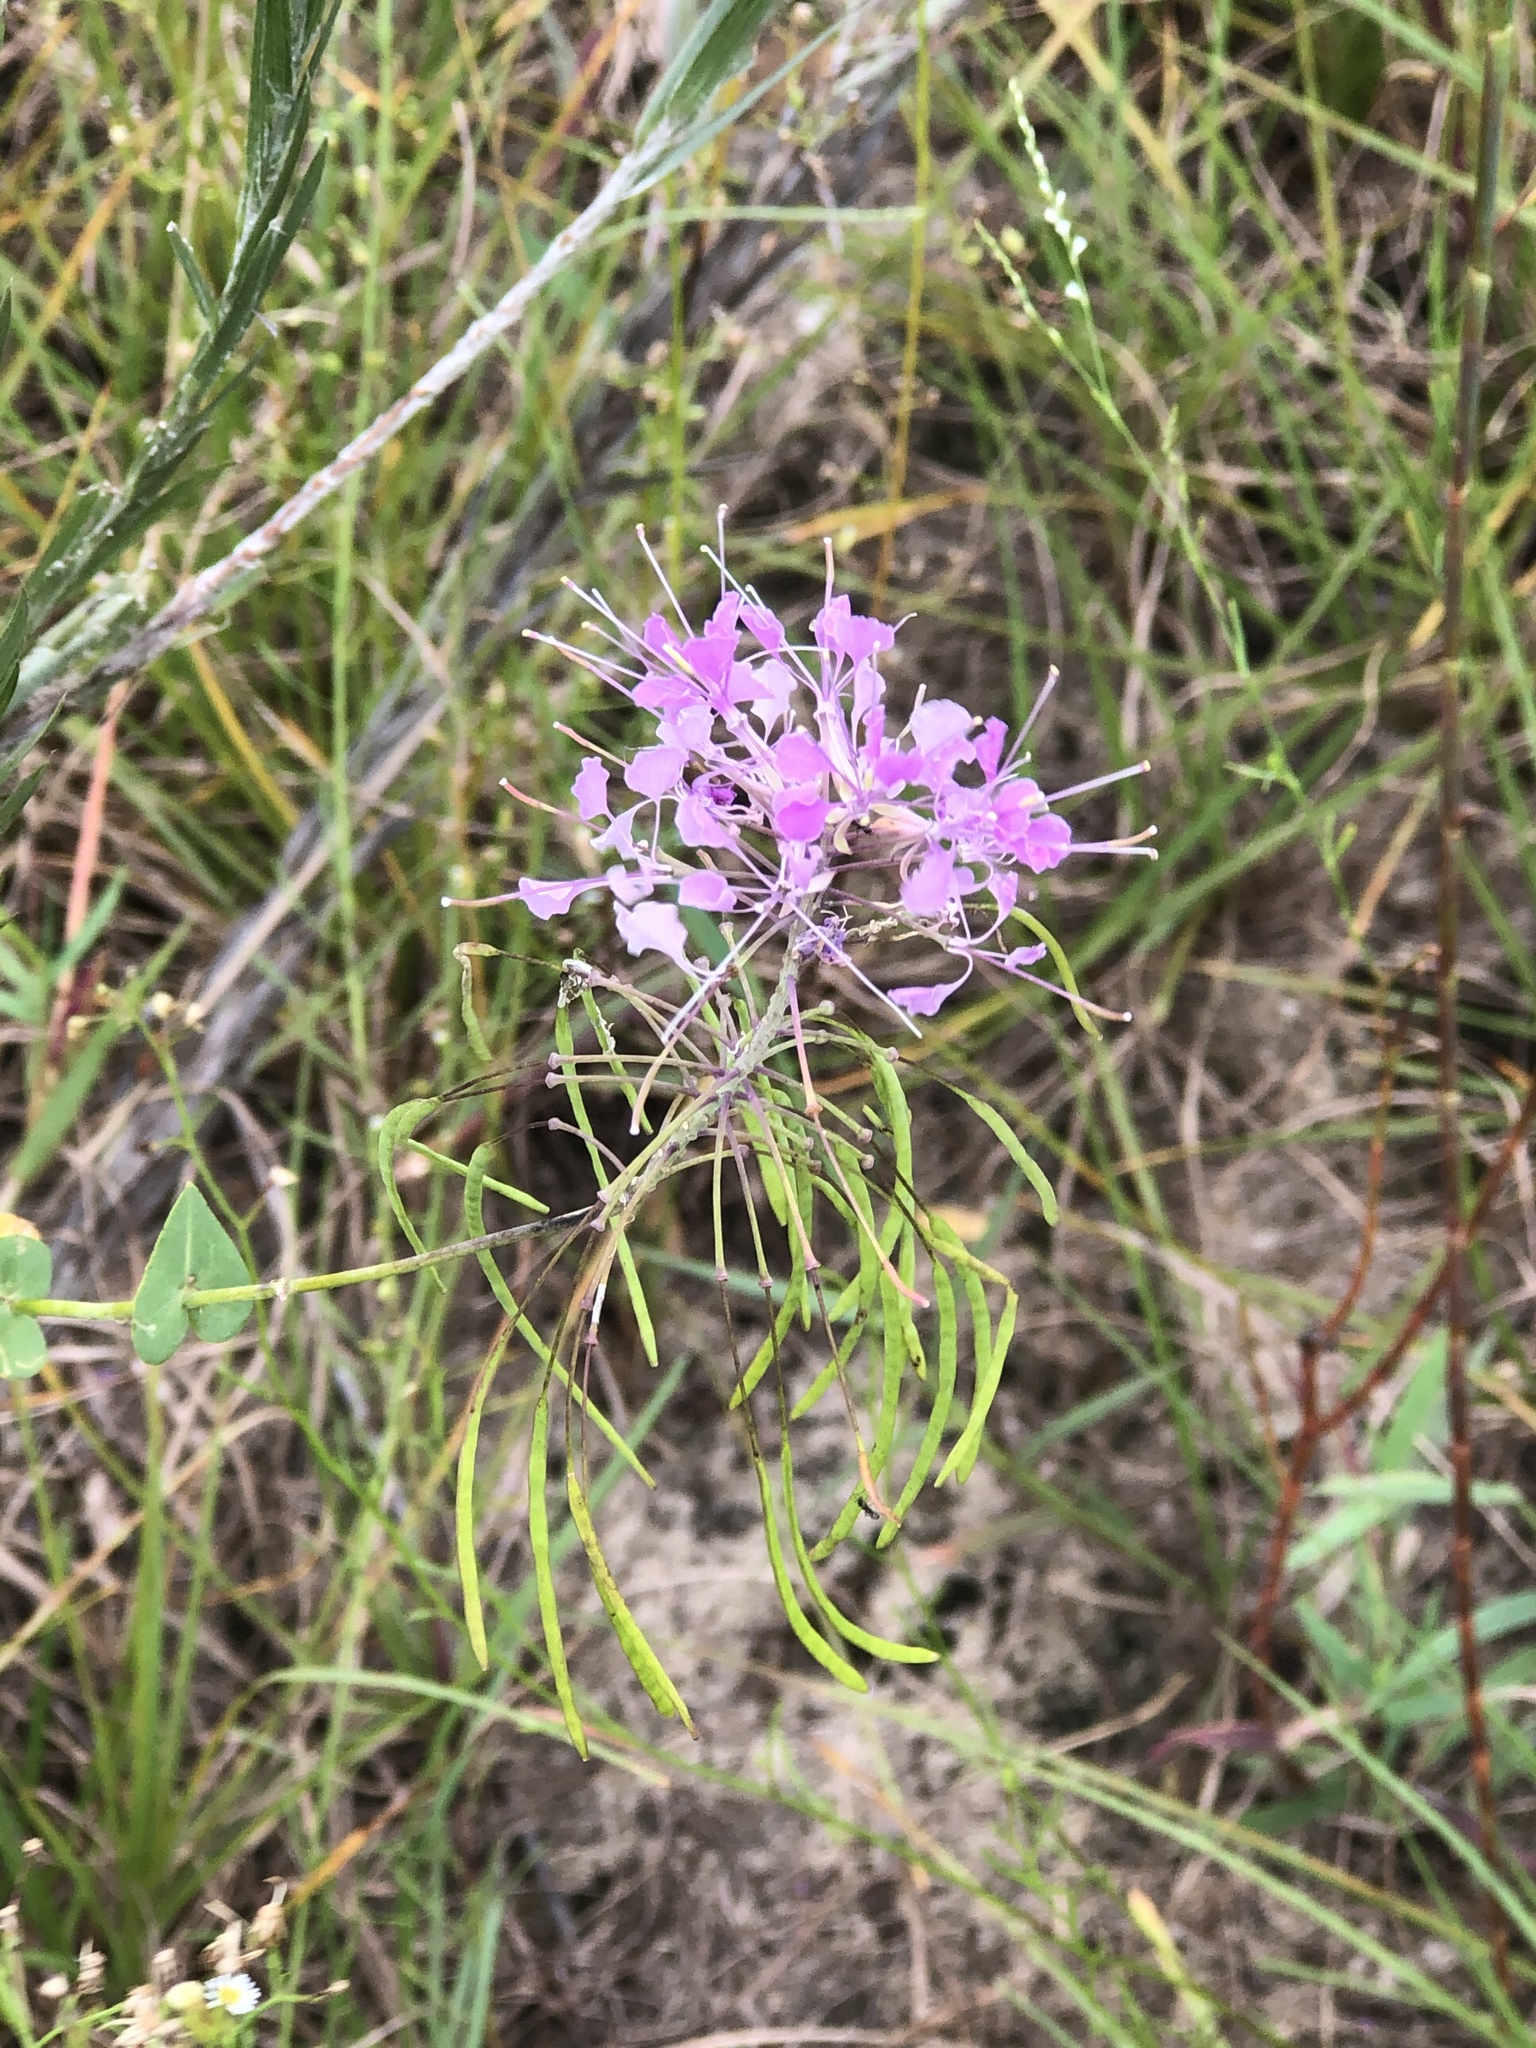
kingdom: Plantae
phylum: Tracheophyta
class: Magnoliopsida
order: Brassicales
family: Brassicaceae
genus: Warea
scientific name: Warea amplexifolia
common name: Wide-leaf warea
